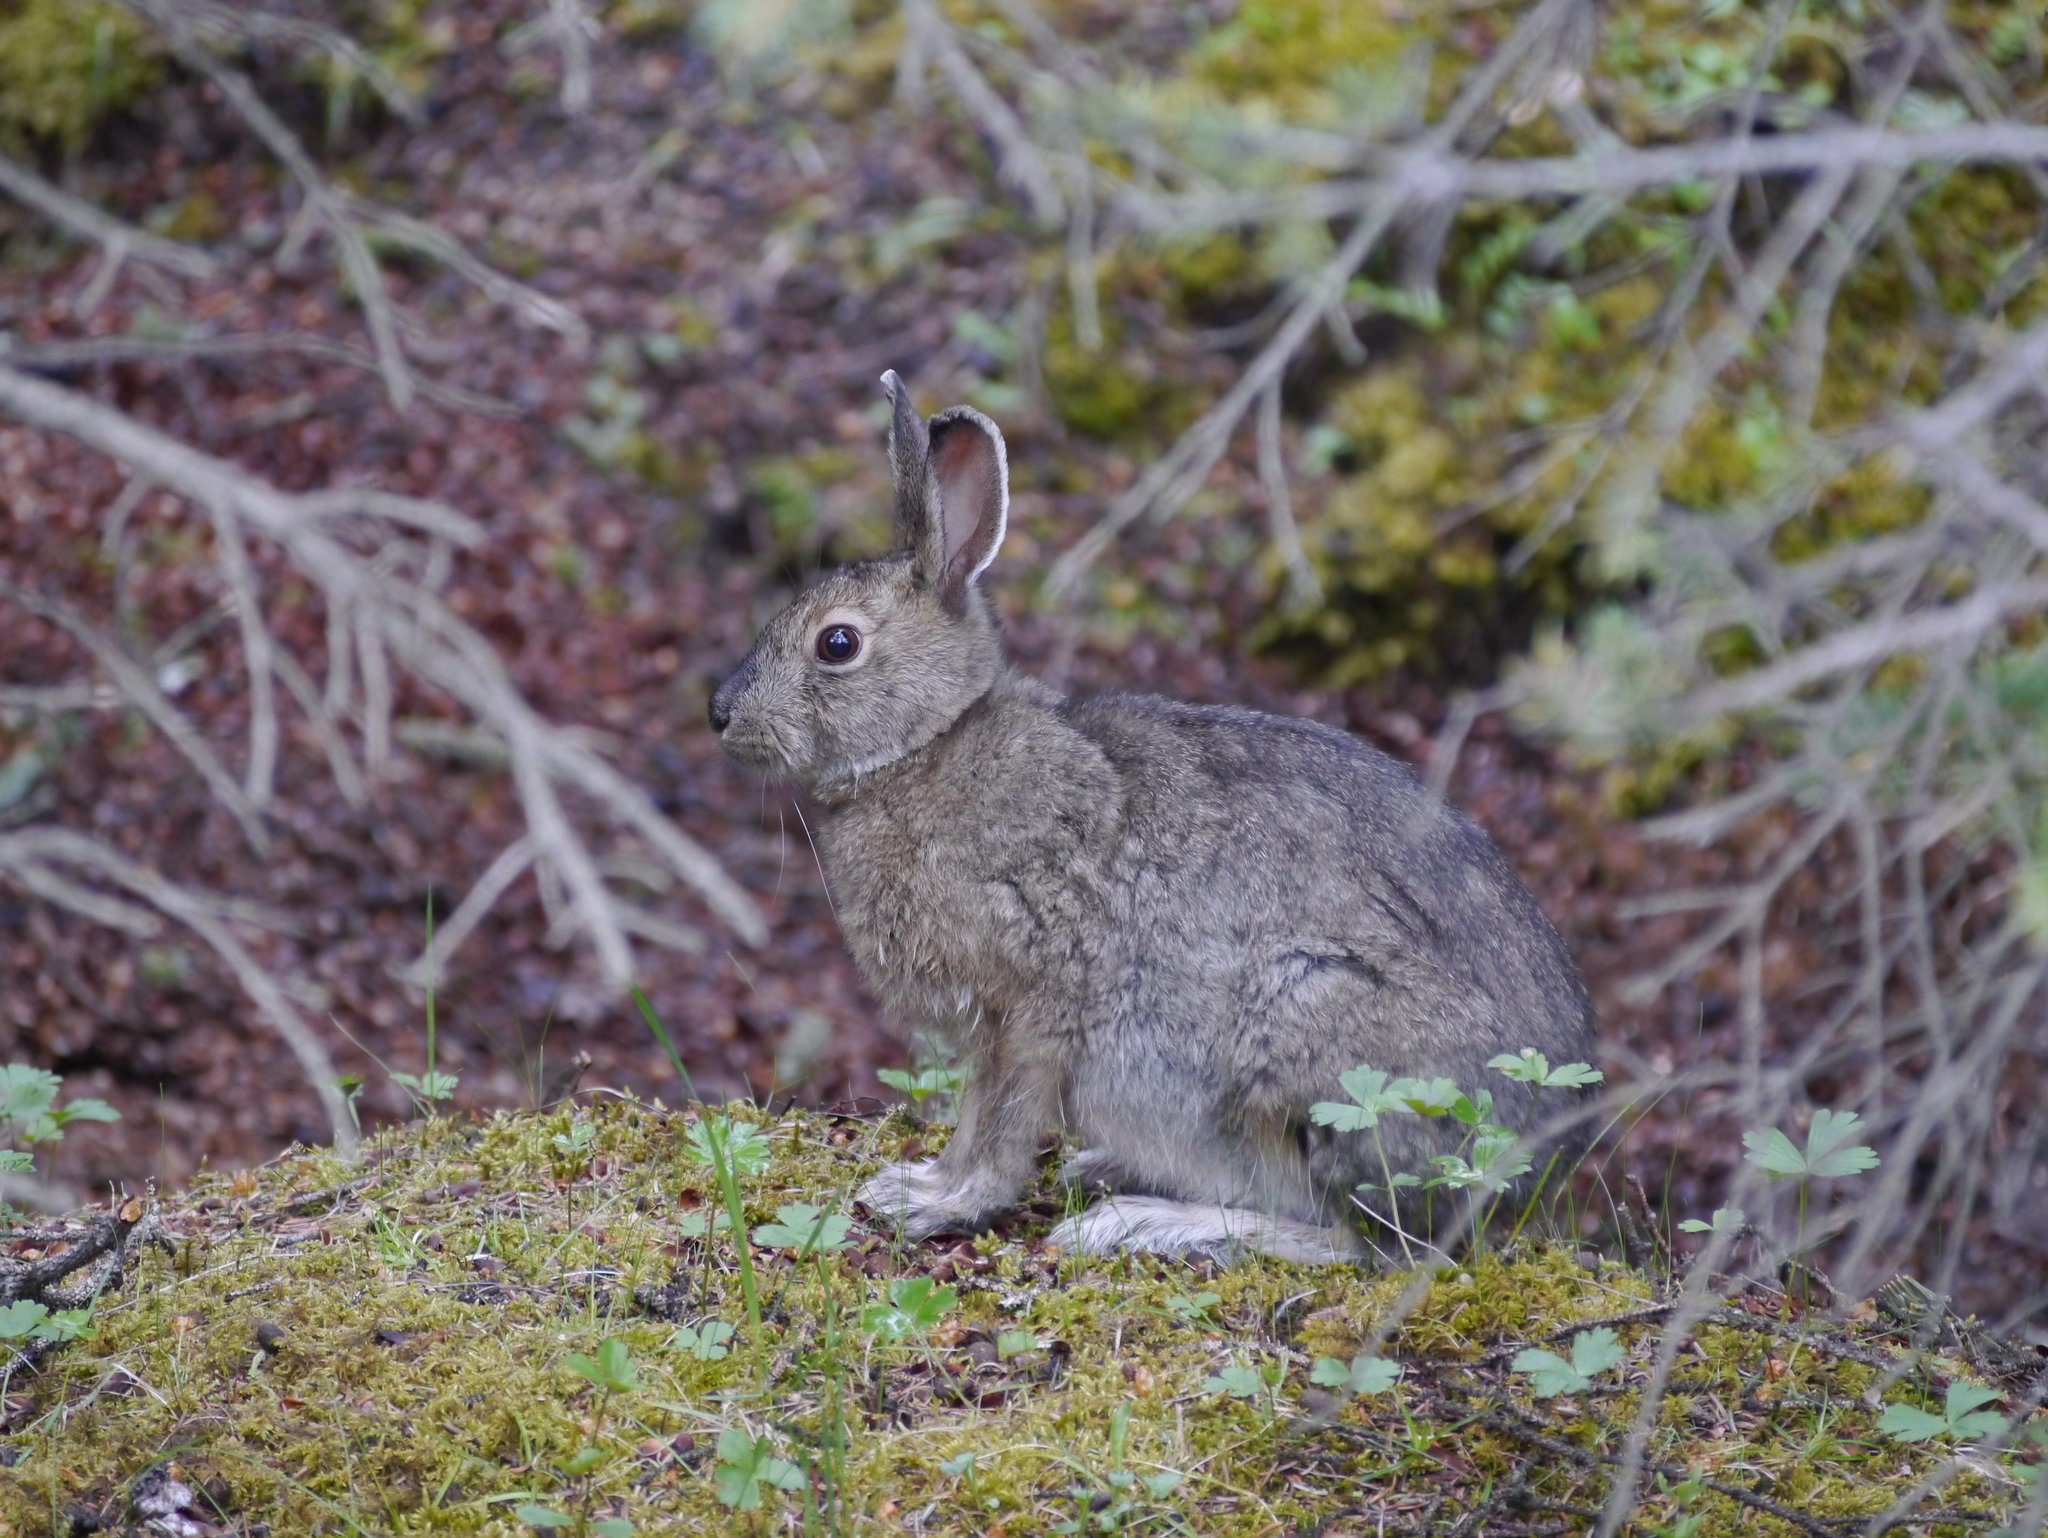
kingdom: Animalia
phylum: Chordata
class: Mammalia
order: Lagomorpha
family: Leporidae
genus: Lepus
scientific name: Lepus americanus
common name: Snowshoe hare
